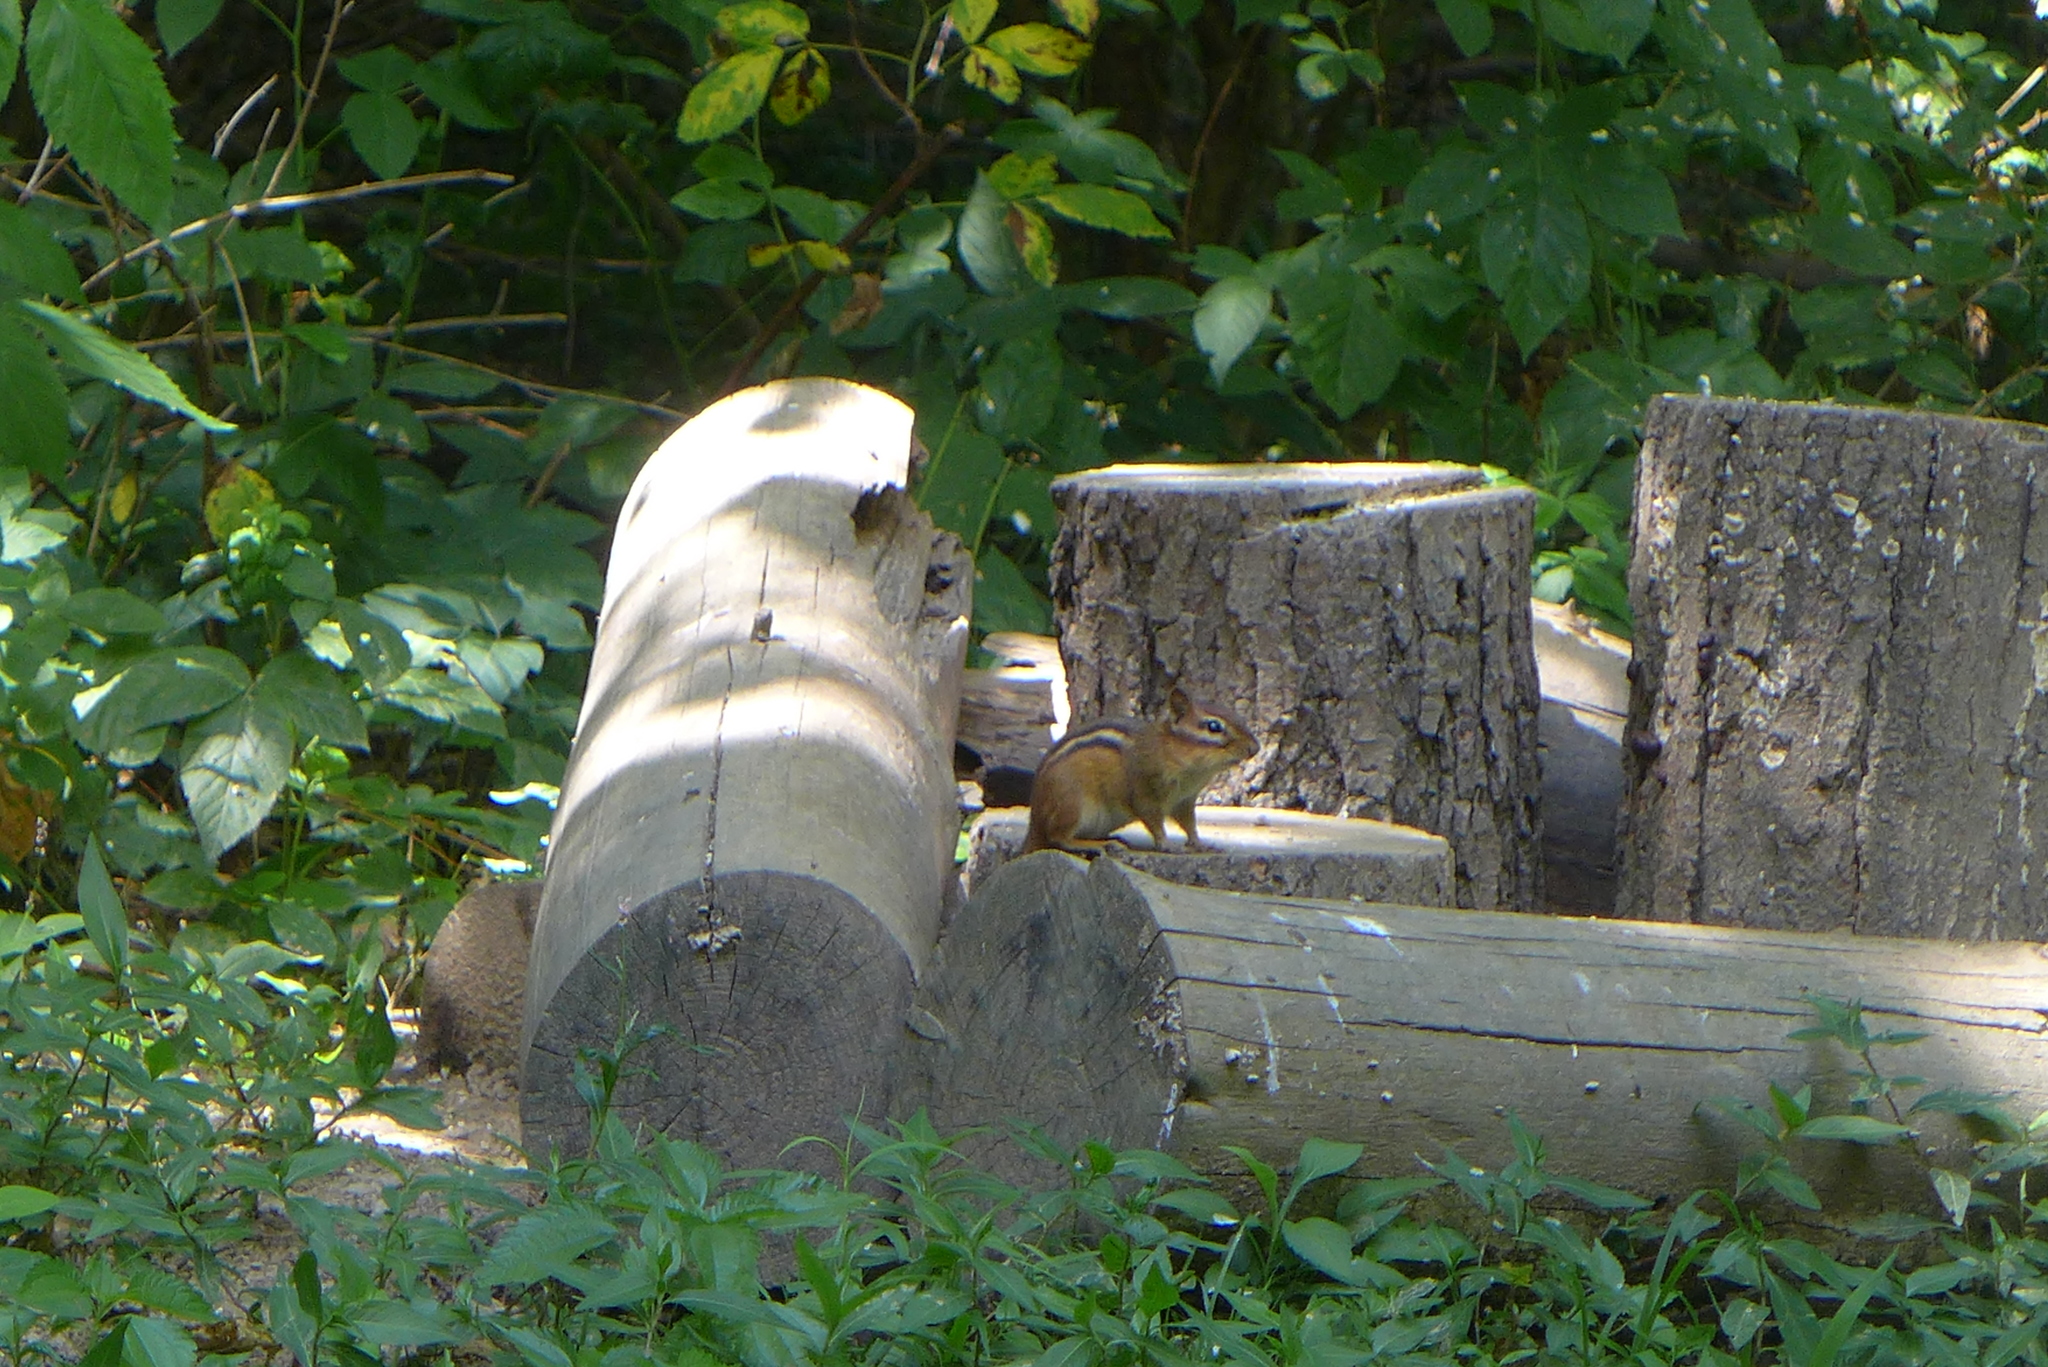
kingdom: Animalia
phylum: Chordata
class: Mammalia
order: Rodentia
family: Sciuridae
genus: Tamias
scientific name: Tamias striatus
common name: Eastern chipmunk
